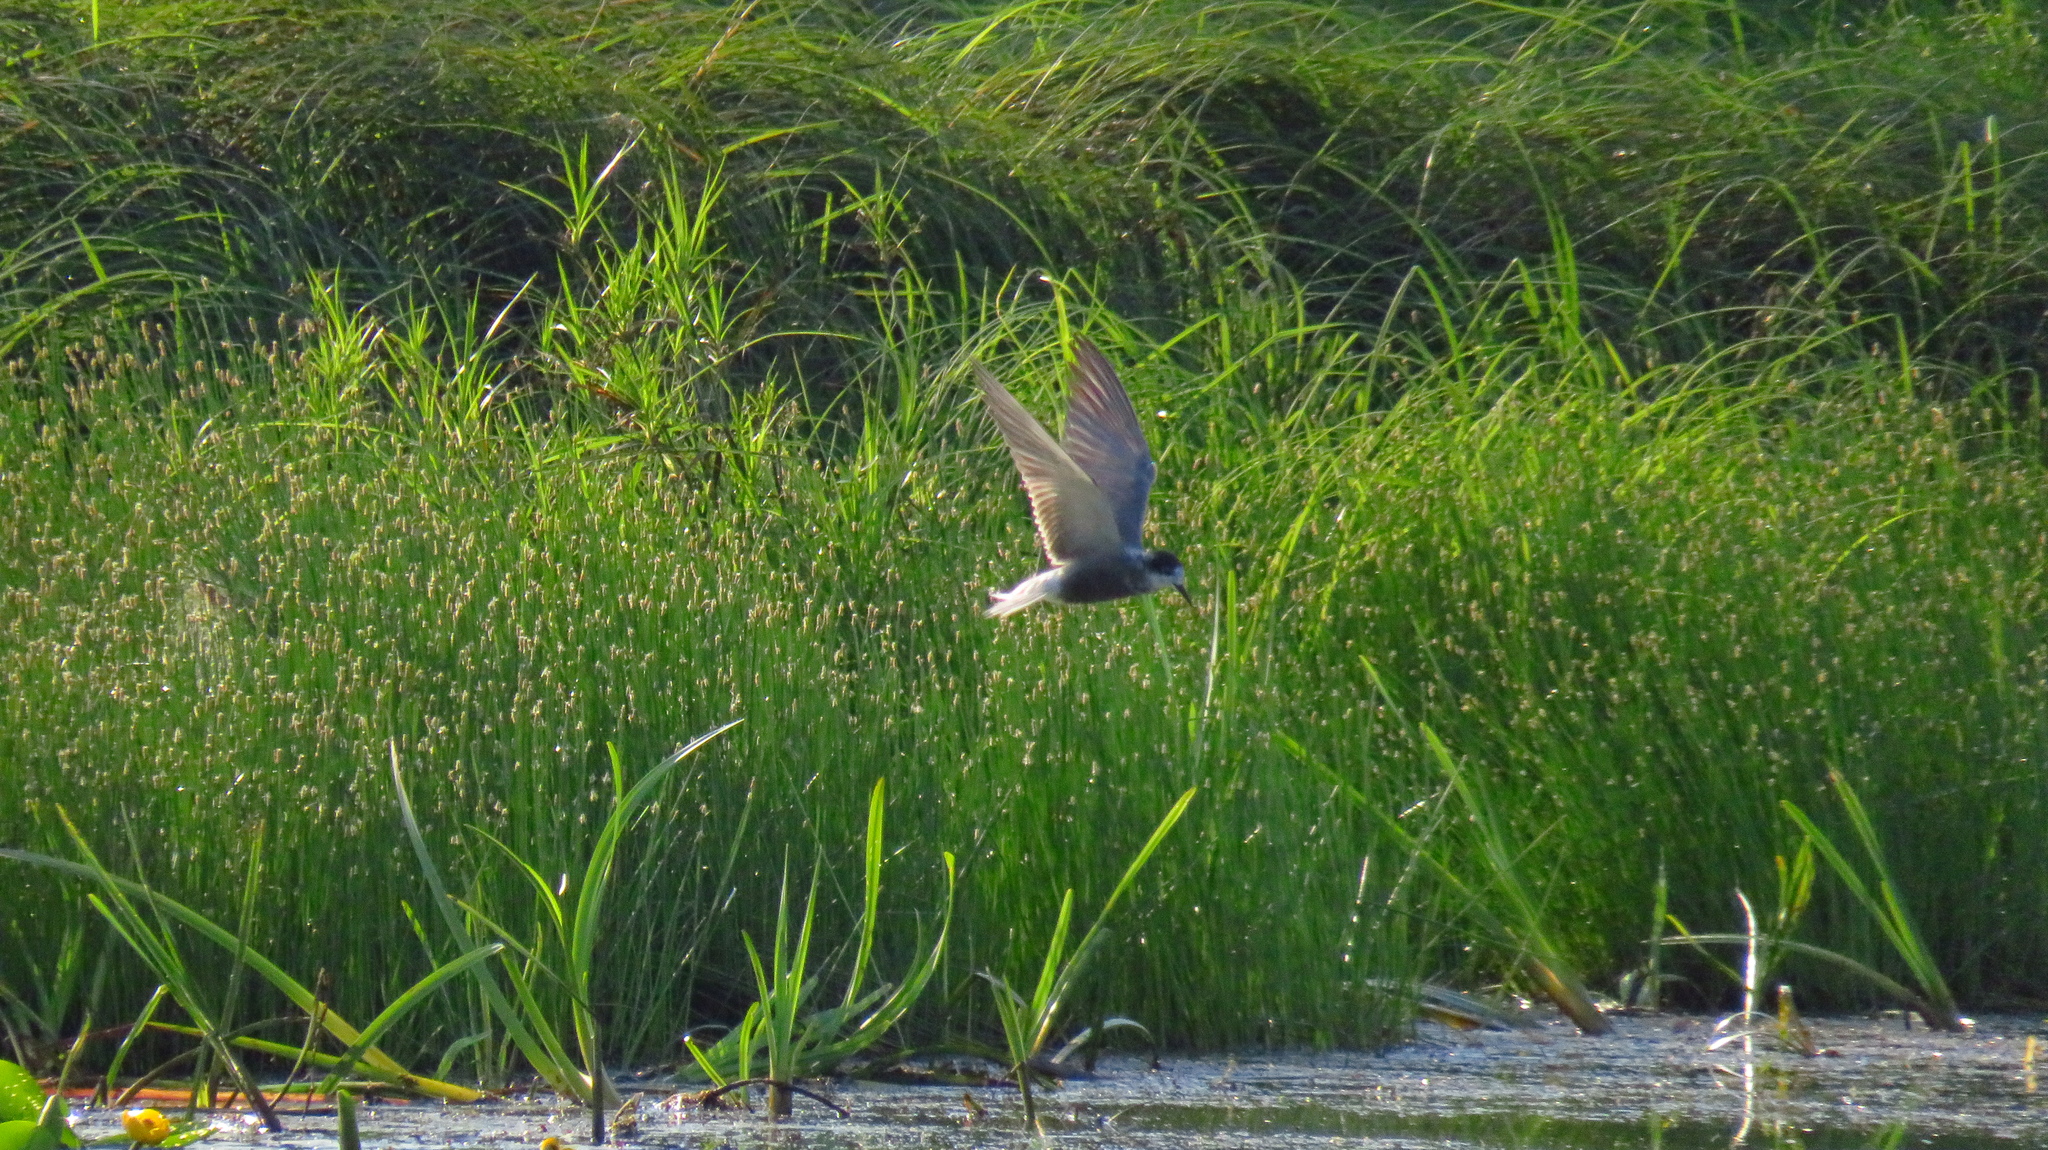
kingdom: Animalia
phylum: Chordata
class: Aves
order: Charadriiformes
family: Laridae
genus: Chlidonias
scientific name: Chlidonias niger
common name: Black tern
